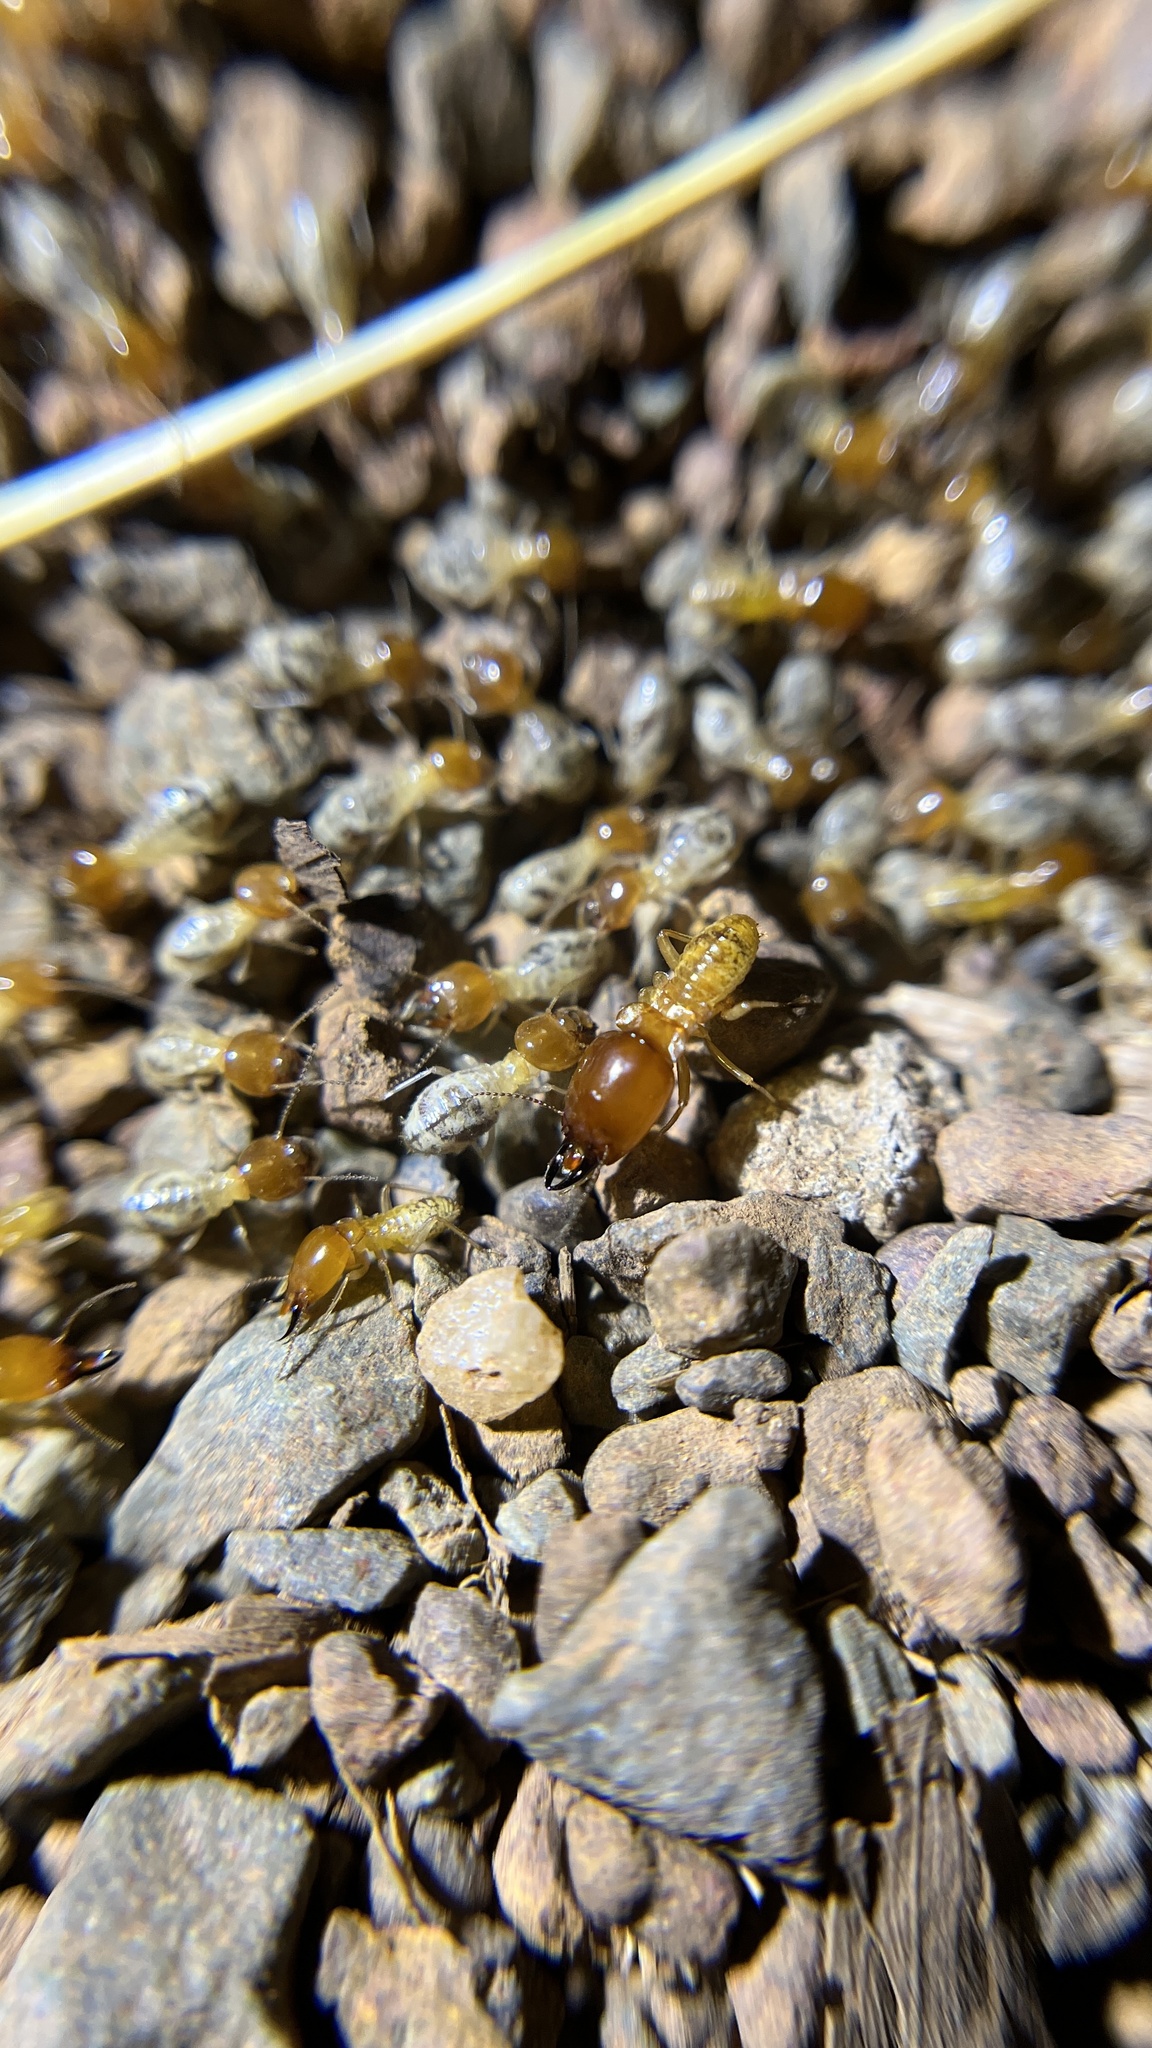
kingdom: Animalia
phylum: Arthropoda
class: Insecta
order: Blattodea
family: Termitidae
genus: Macrotermes
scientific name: Macrotermes gilvus
